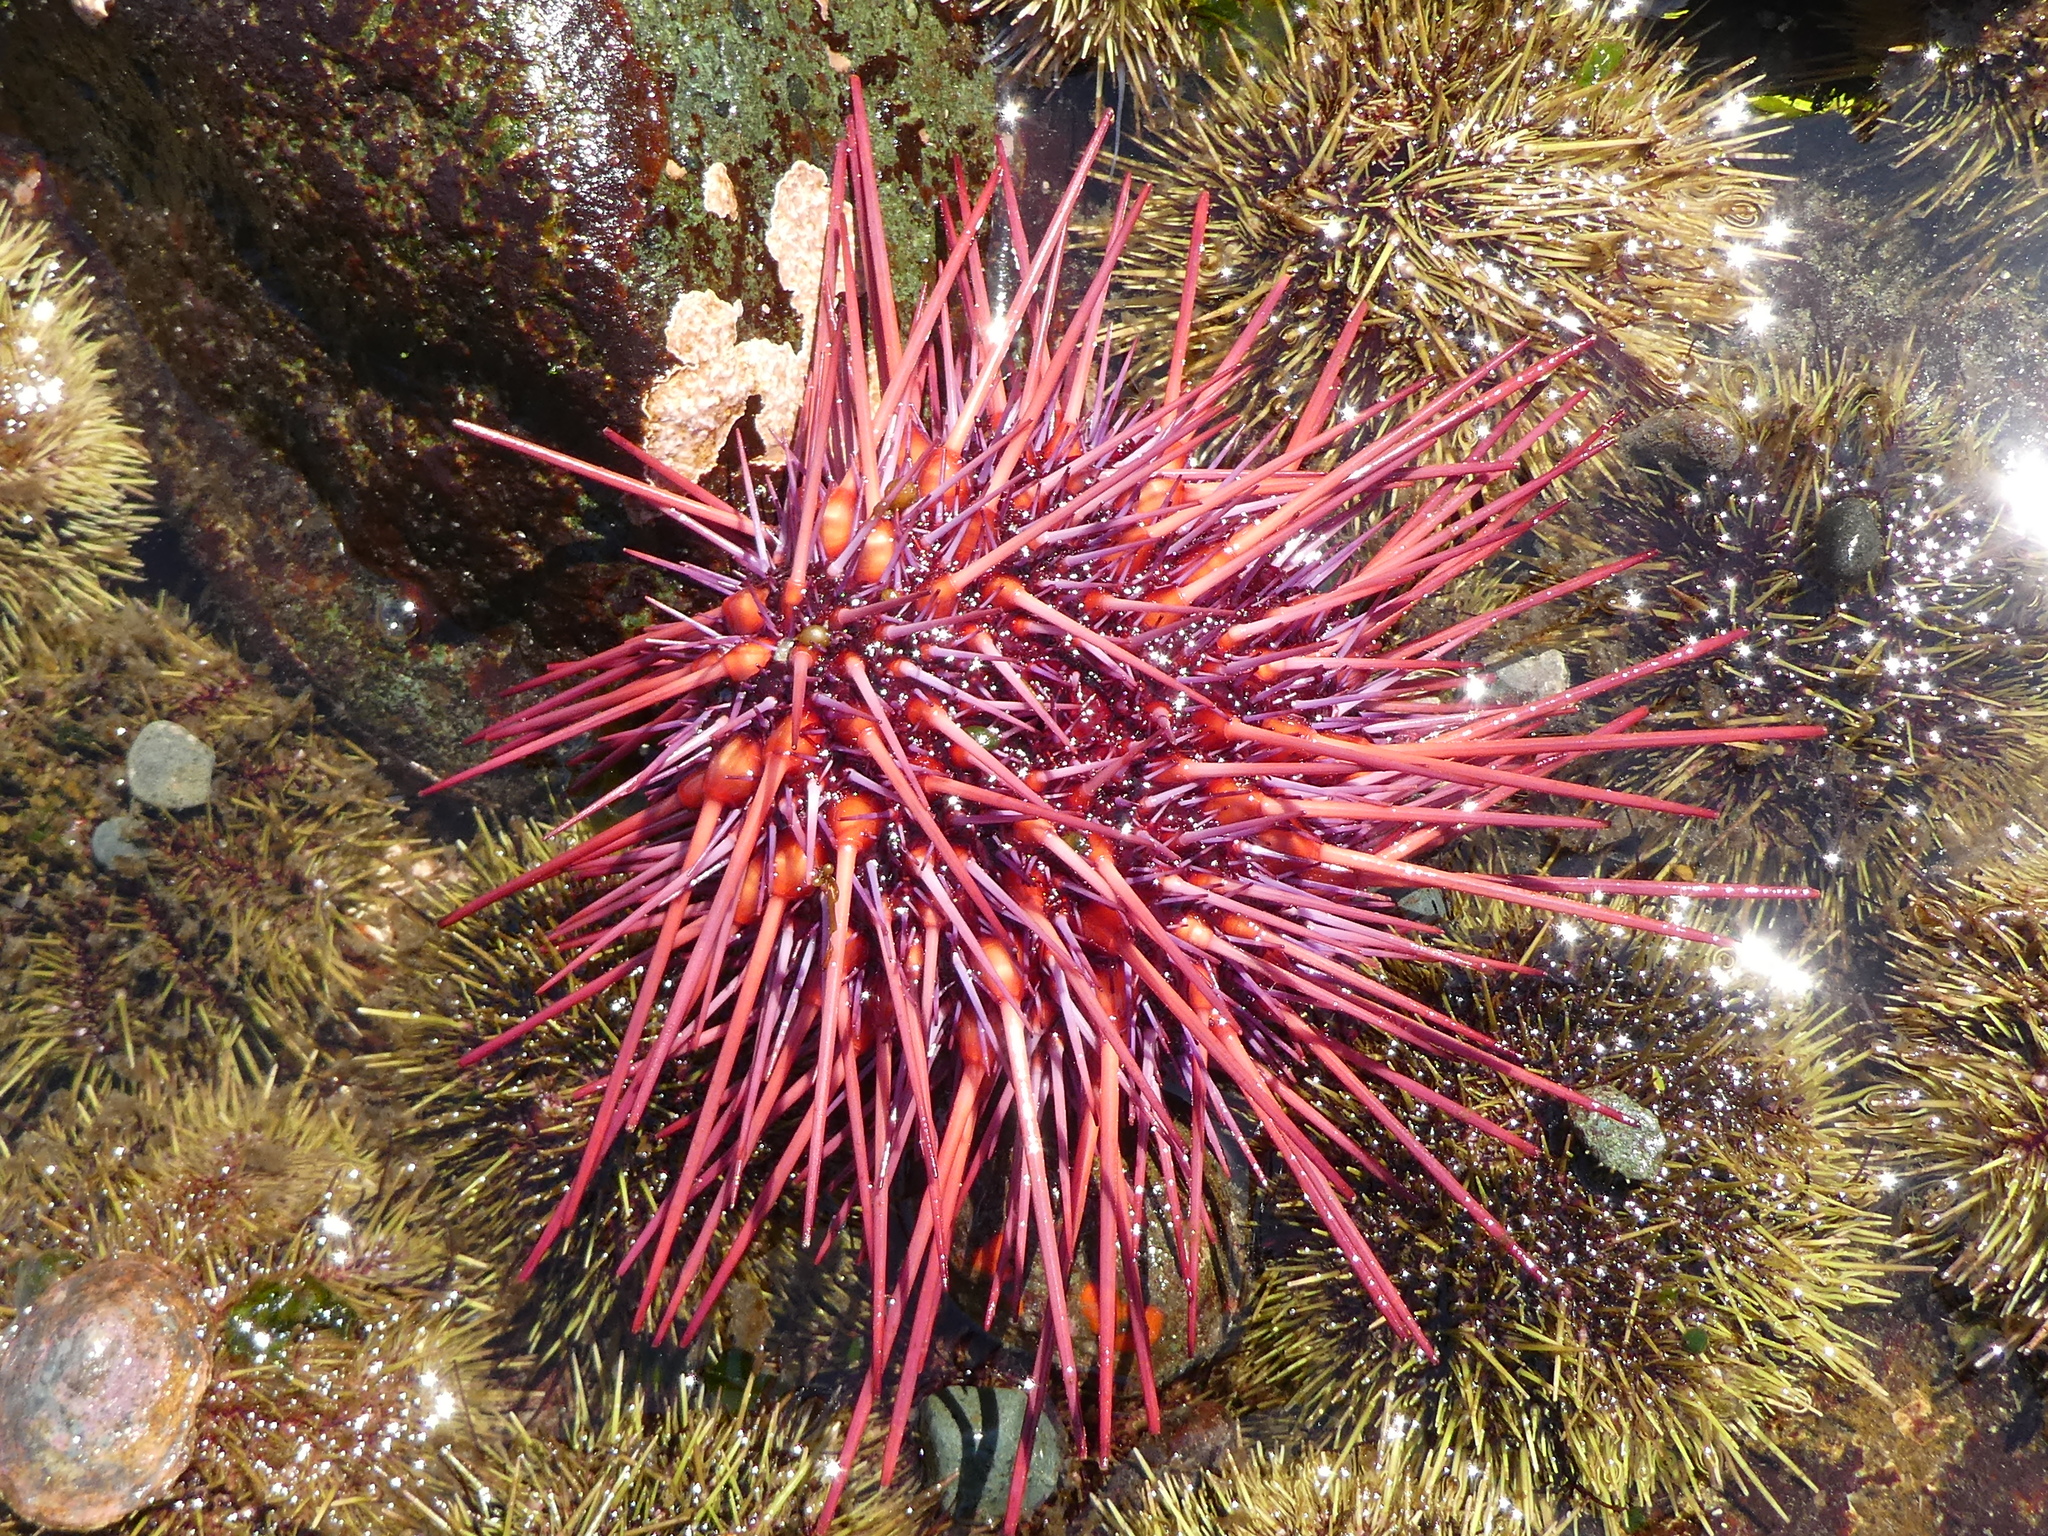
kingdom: Animalia
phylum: Echinodermata
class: Echinoidea
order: Camarodonta
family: Strongylocentrotidae
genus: Mesocentrotus
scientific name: Mesocentrotus franciscanus
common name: Red sea urchin
